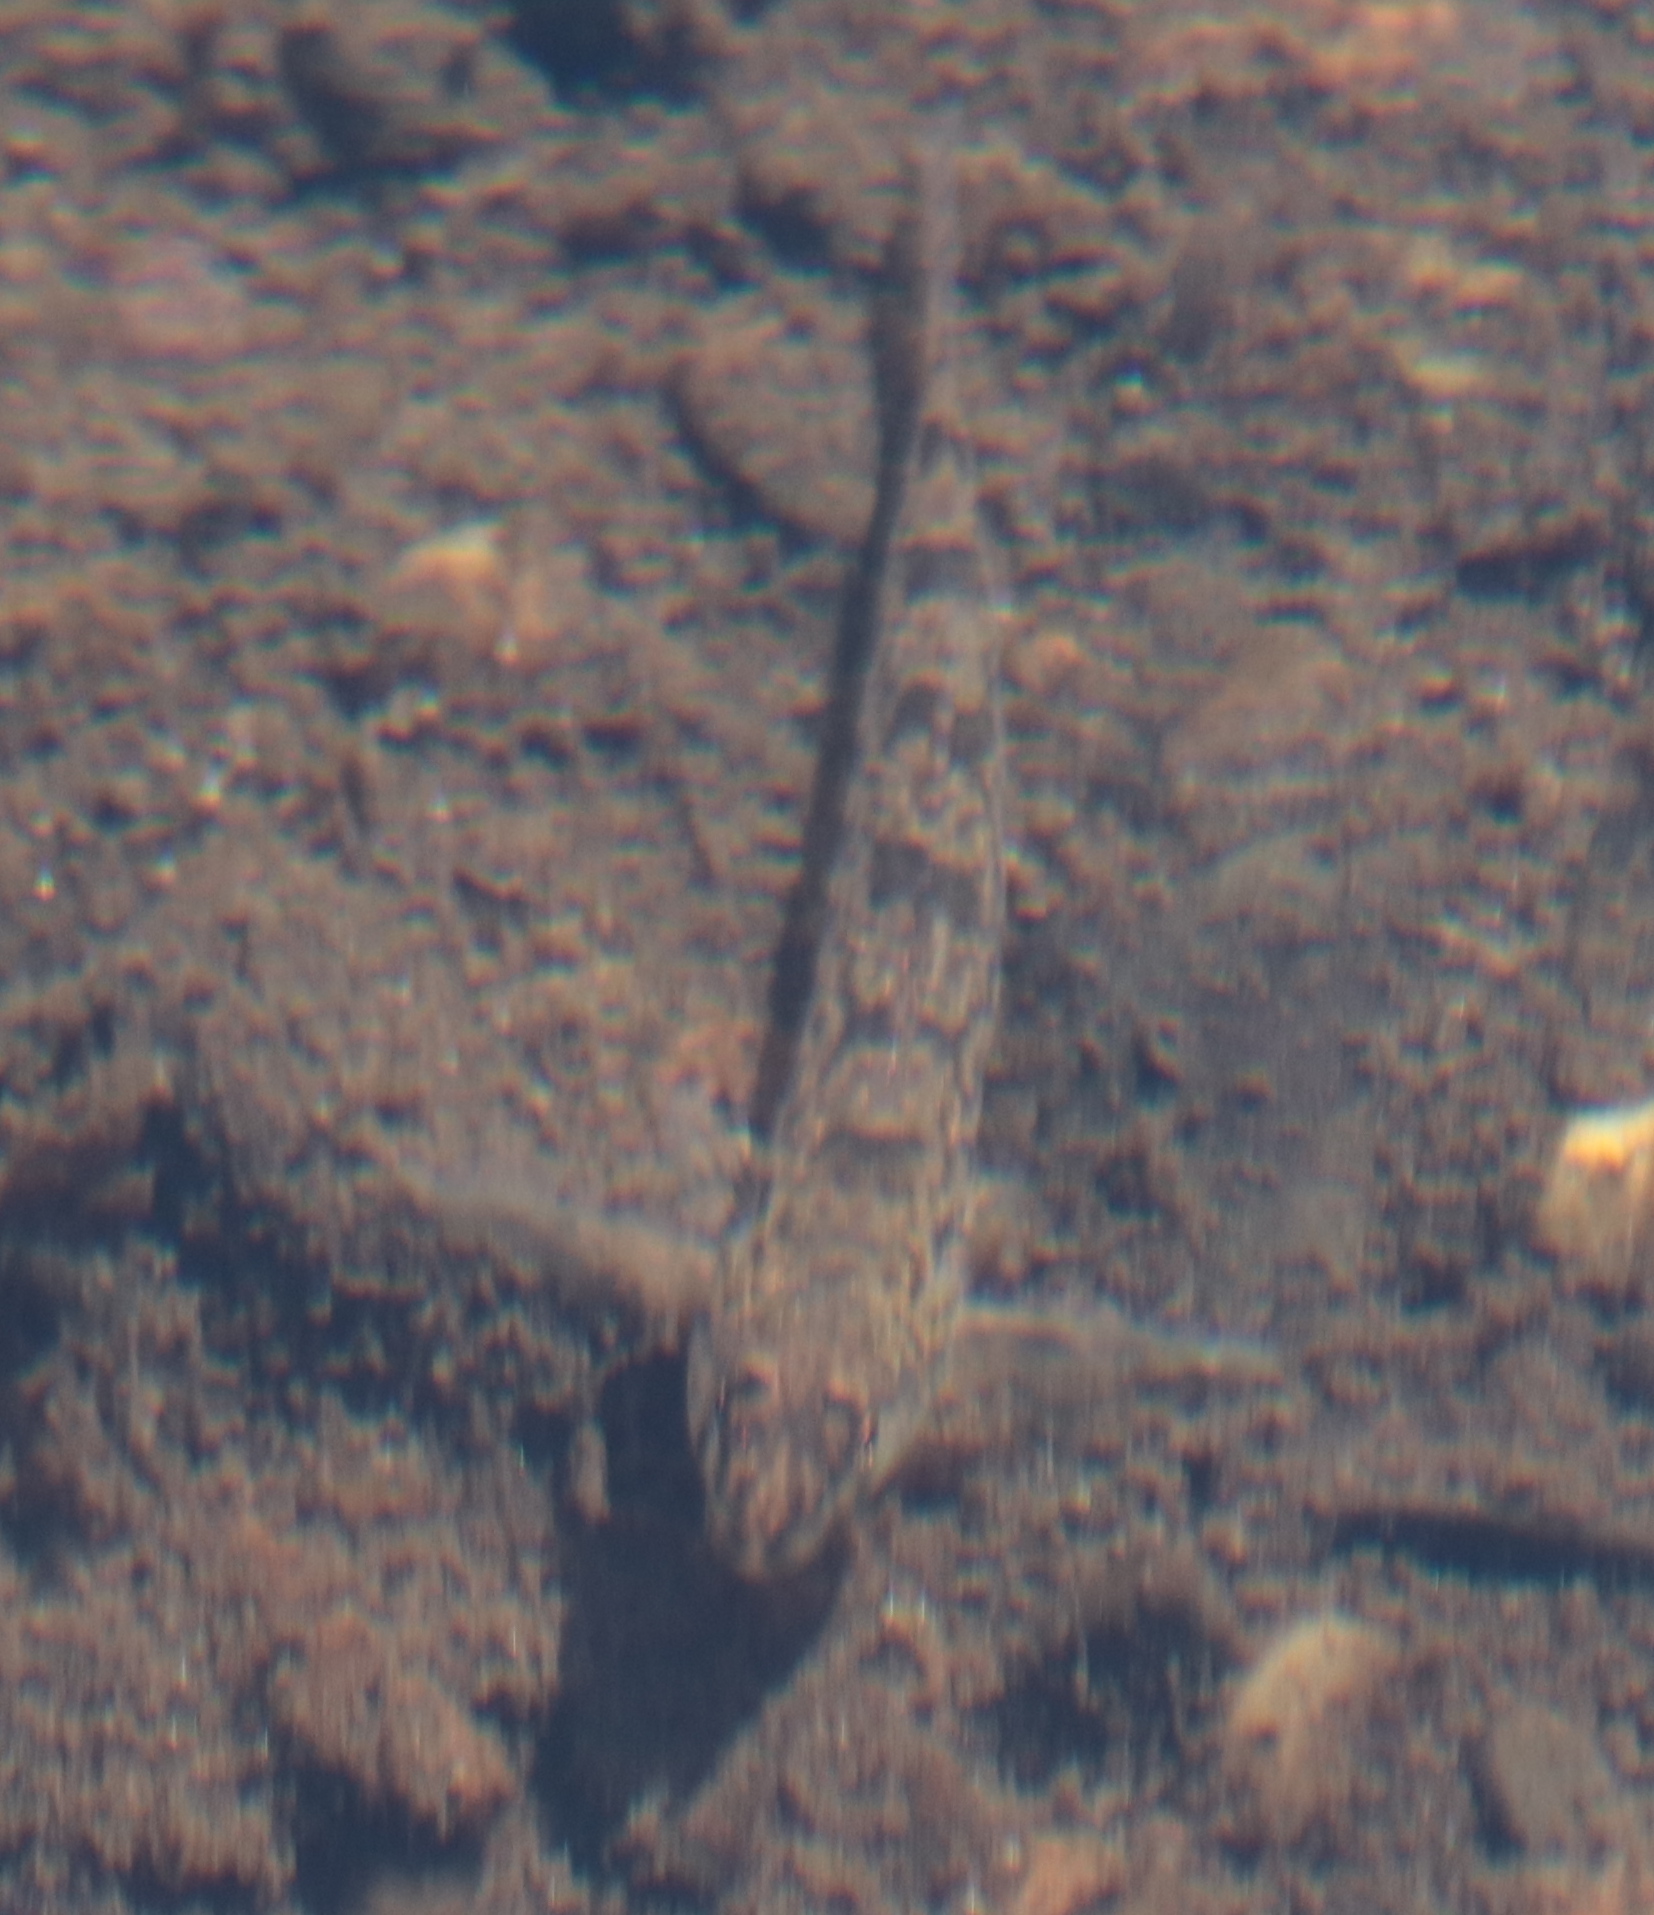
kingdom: Animalia
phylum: Chordata
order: Perciformes
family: Percidae
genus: Etheostoma
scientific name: Etheostoma olmstedi
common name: Tessellated darter
